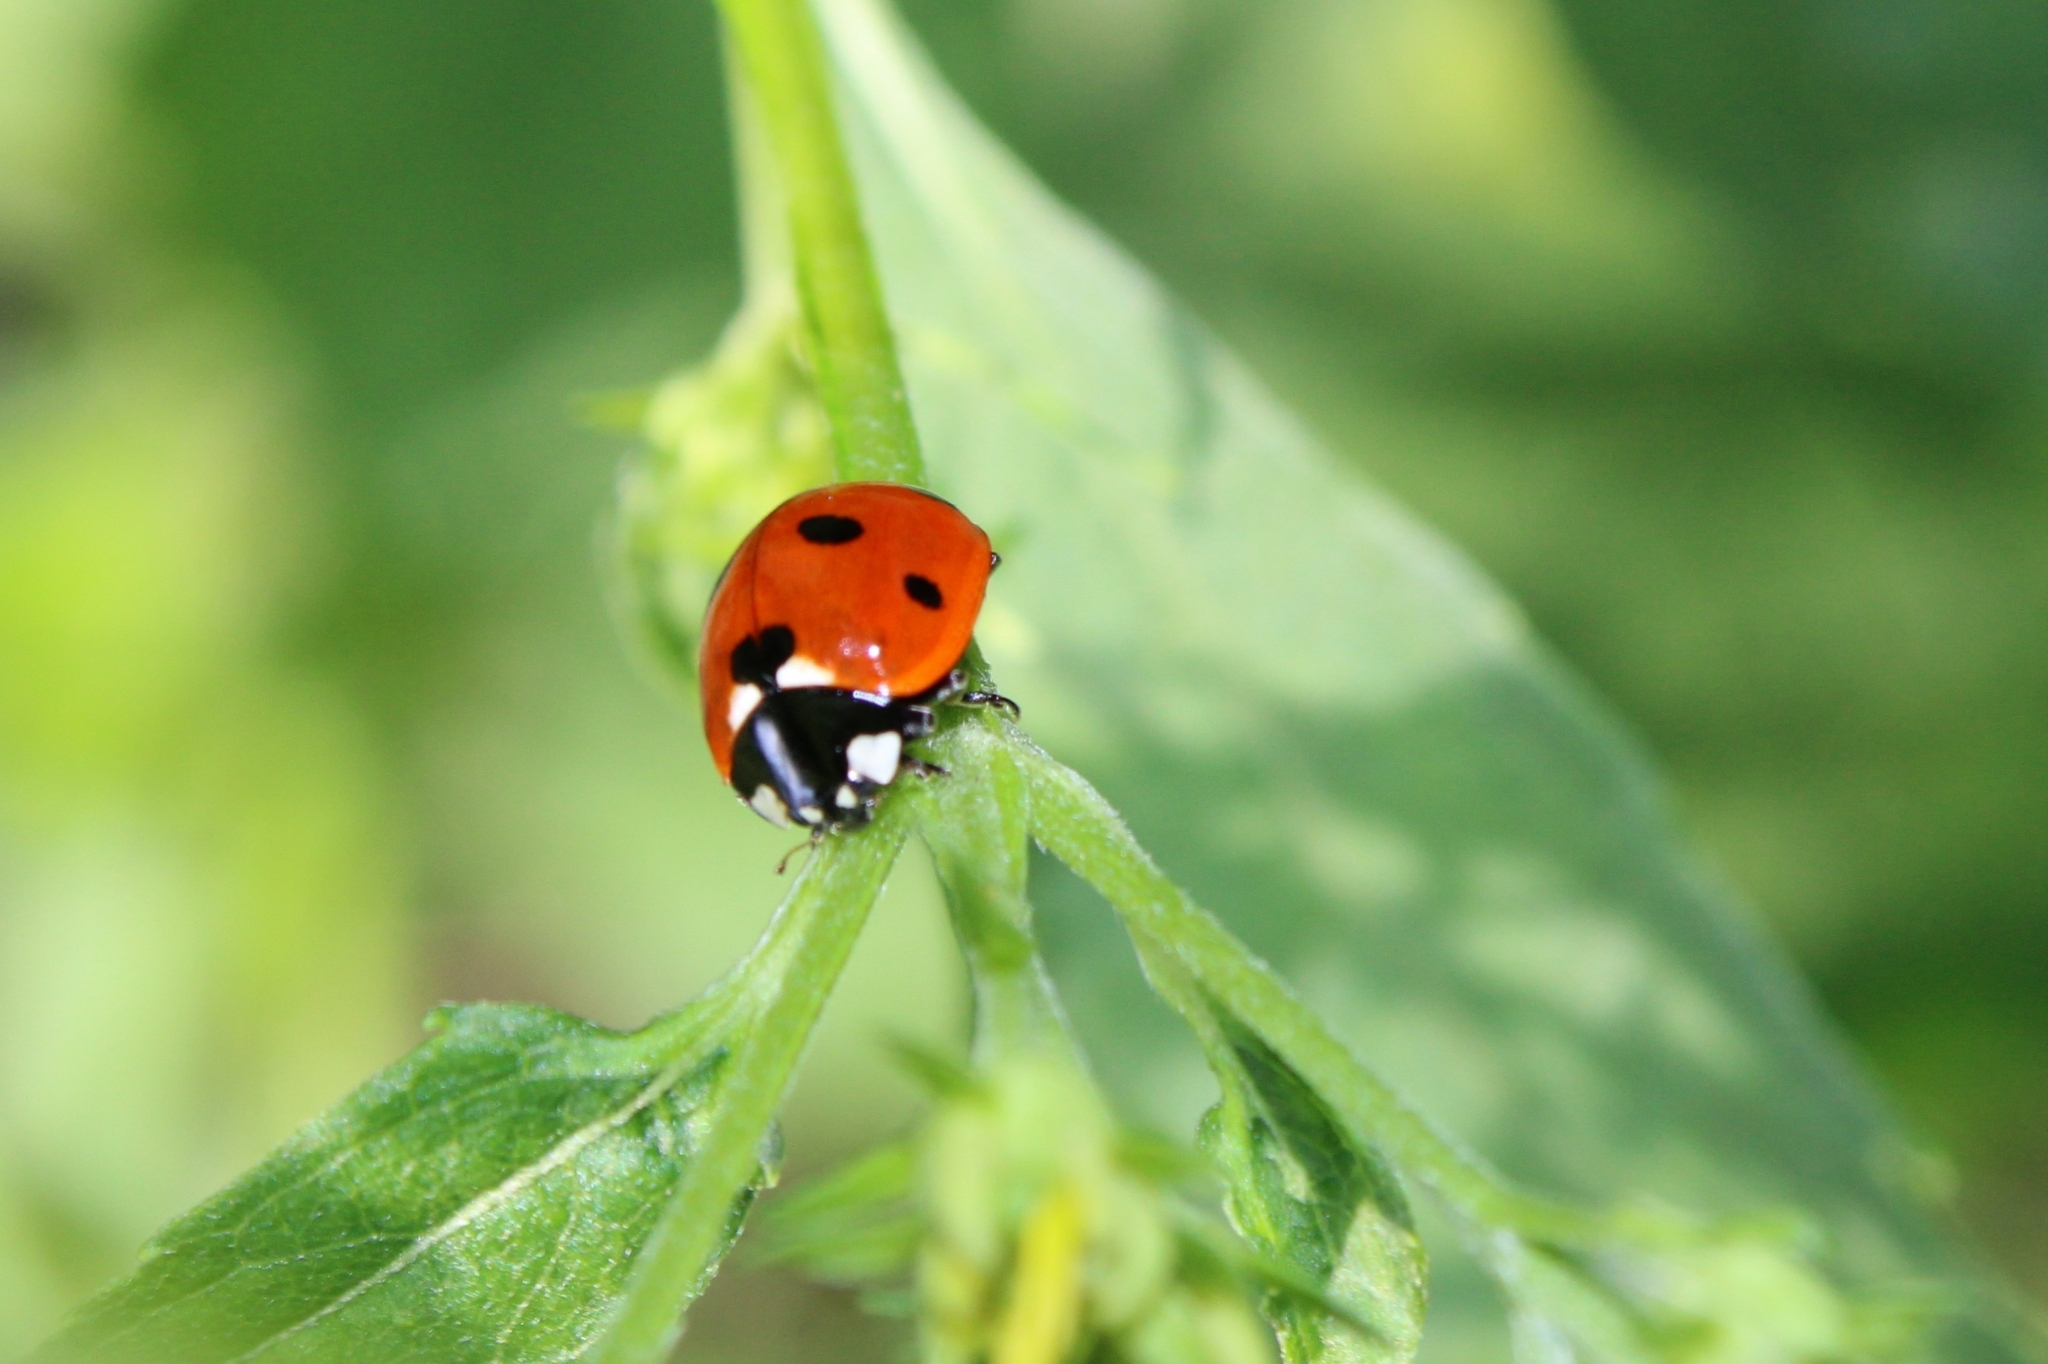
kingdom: Animalia
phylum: Arthropoda
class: Insecta
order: Coleoptera
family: Coccinellidae
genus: Coccinella
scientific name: Coccinella septempunctata
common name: Sevenspotted lady beetle
